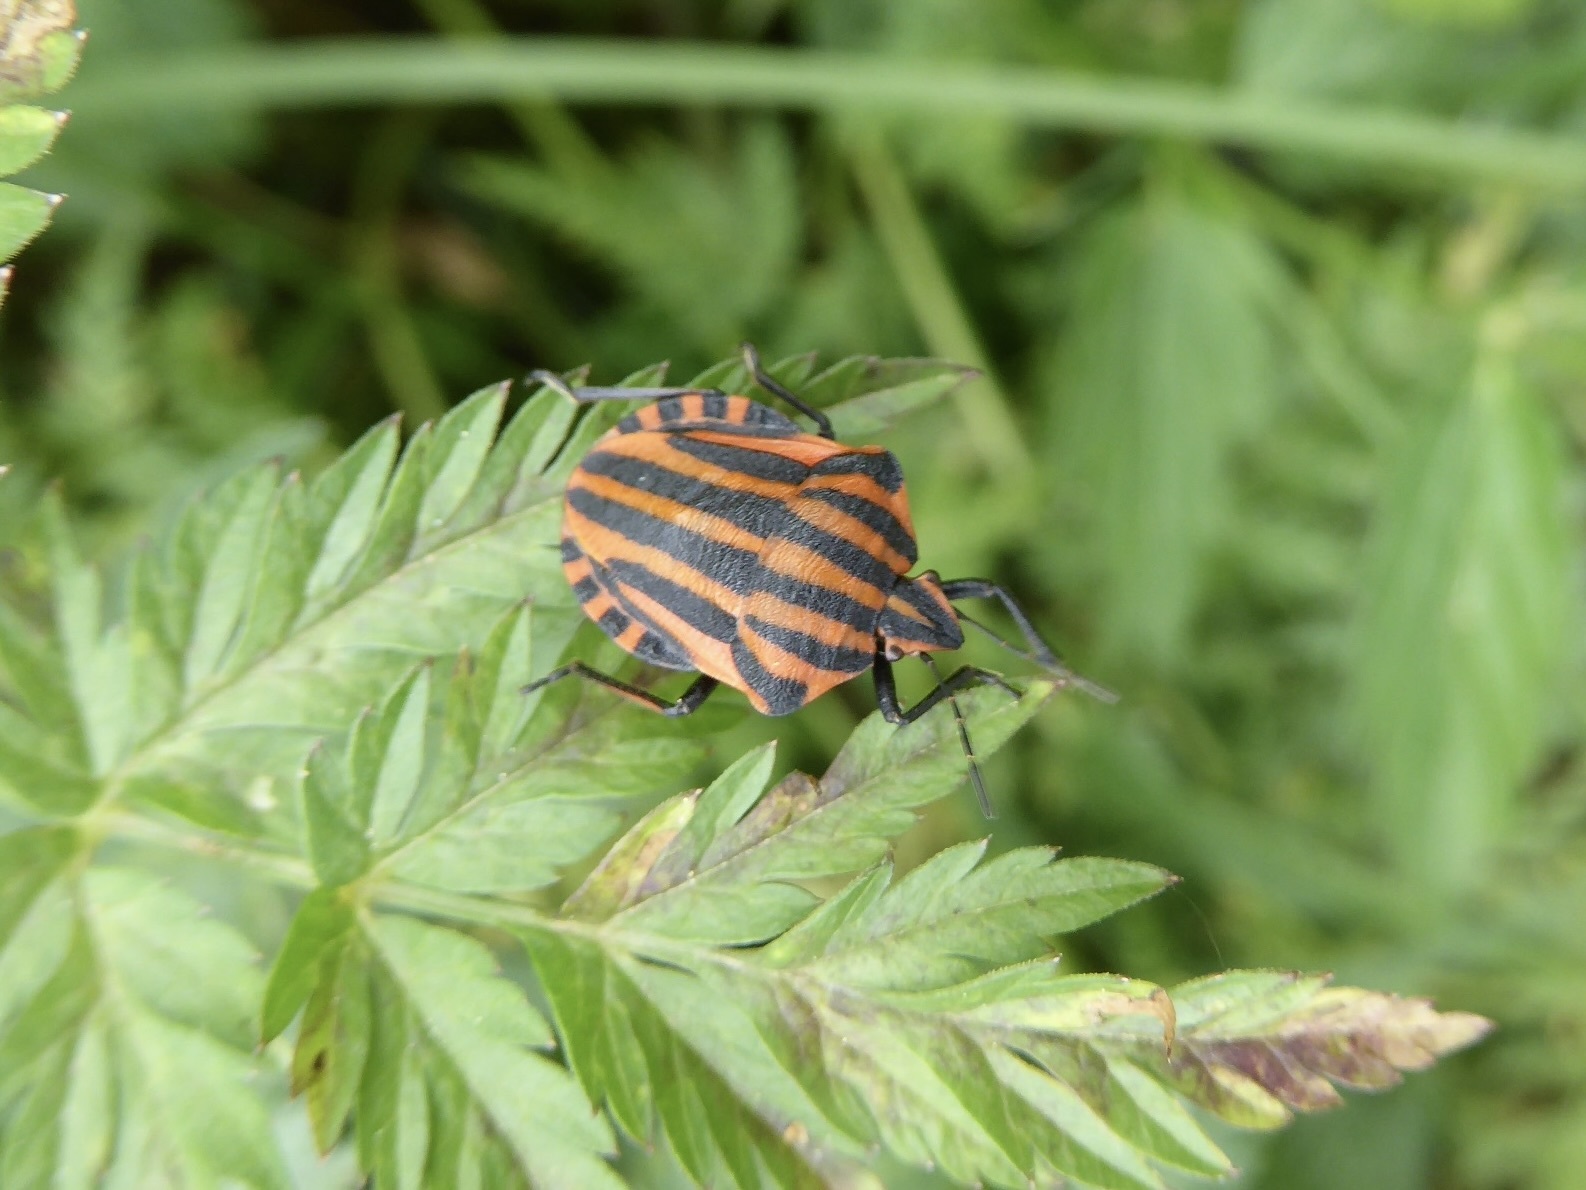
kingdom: Animalia
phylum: Arthropoda
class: Insecta
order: Hemiptera
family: Pentatomidae
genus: Graphosoma
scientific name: Graphosoma italicum
